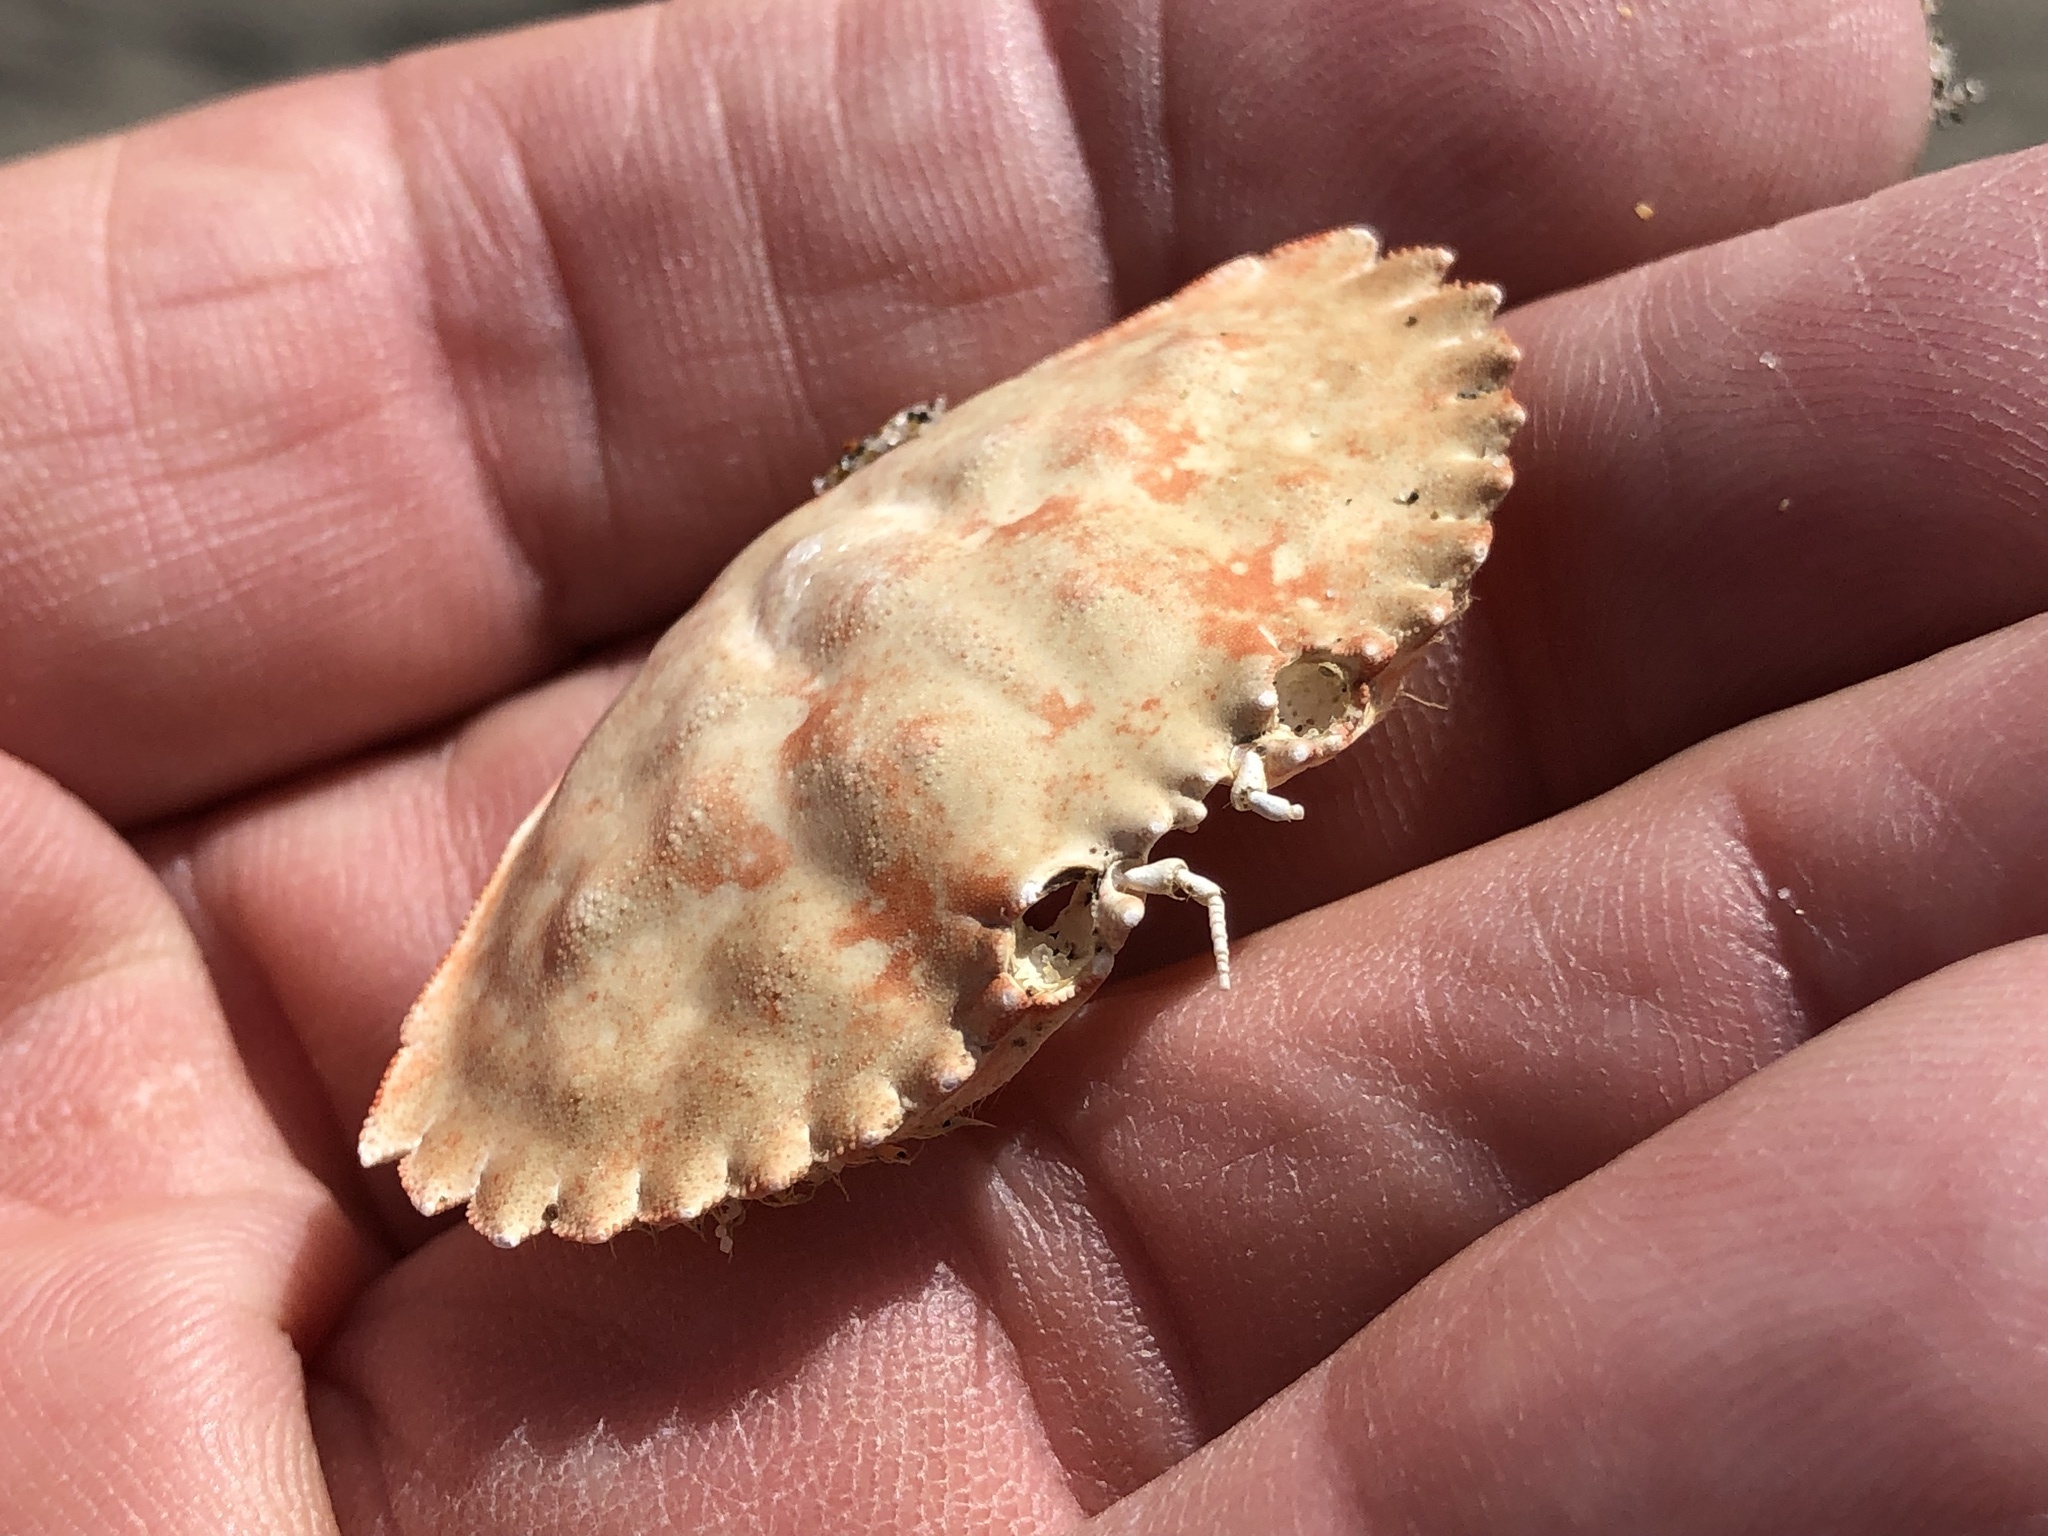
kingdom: Animalia
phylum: Arthropoda
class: Malacostraca
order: Decapoda
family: Cancridae
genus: Romaleon
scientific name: Romaleon antennarium
